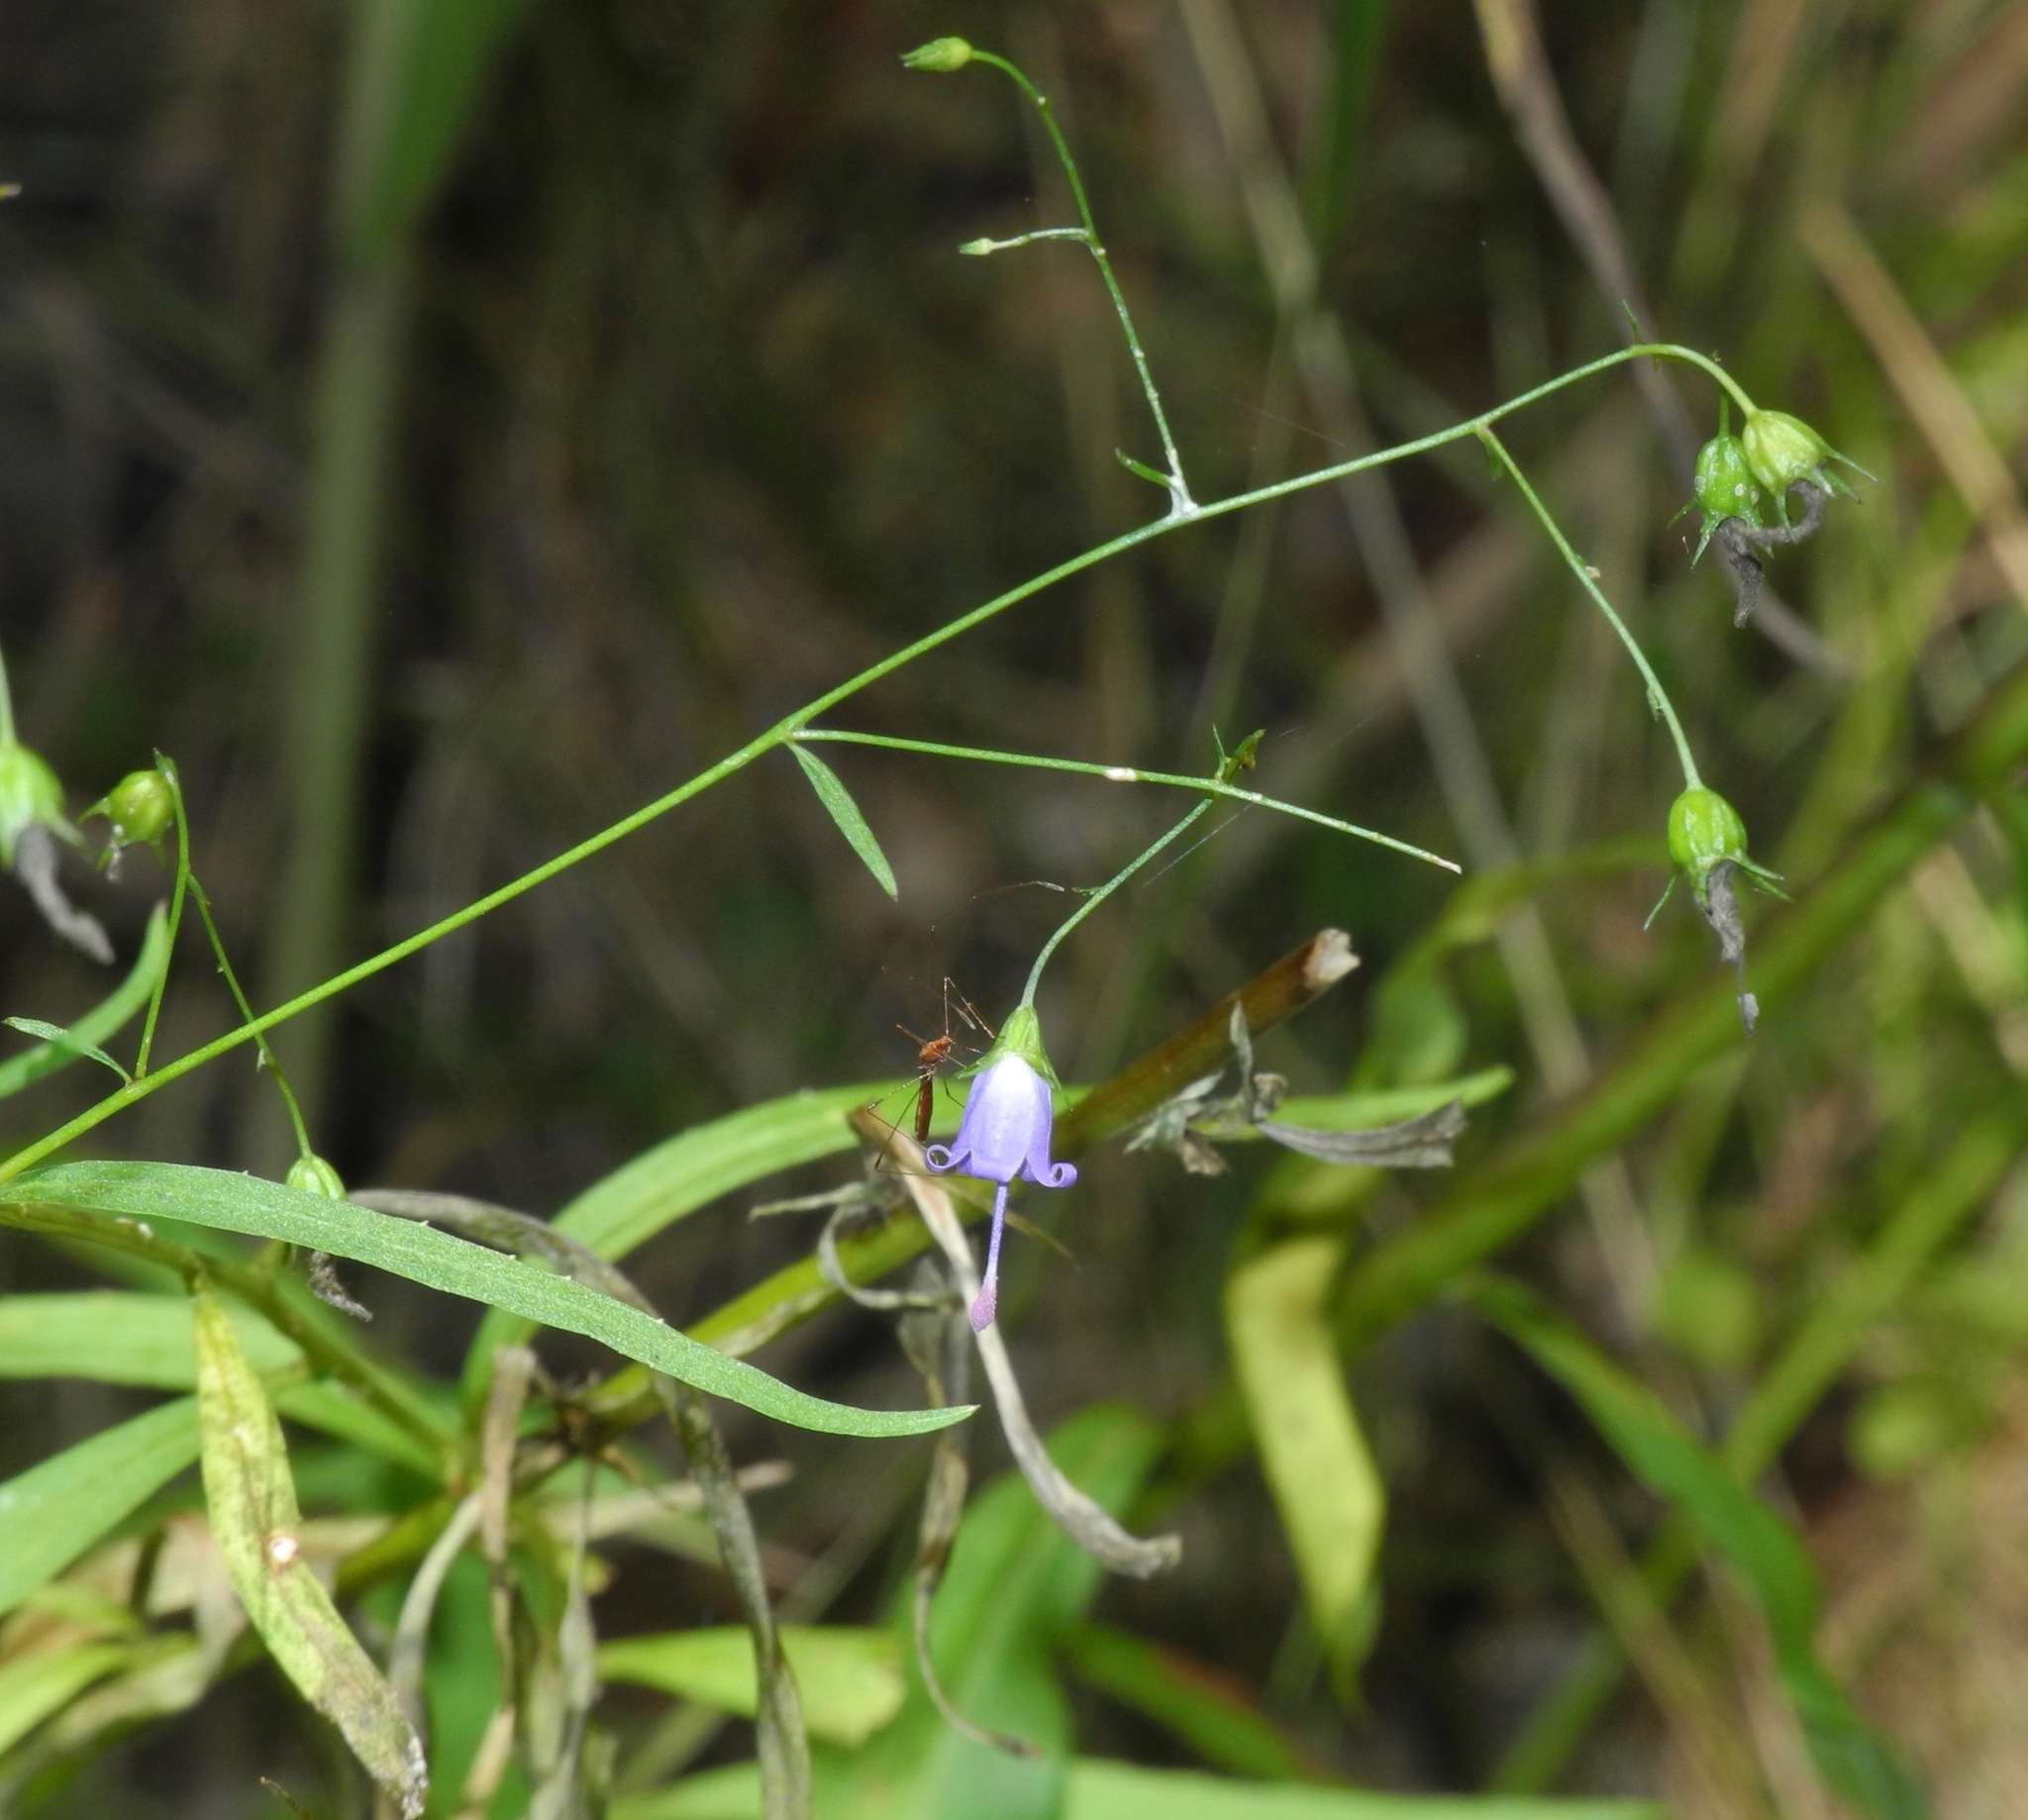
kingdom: Plantae
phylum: Tracheophyta
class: Magnoliopsida
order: Asterales
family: Campanulaceae
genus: Campanula
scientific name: Campanula divaricata
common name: Appalachian bellflower
